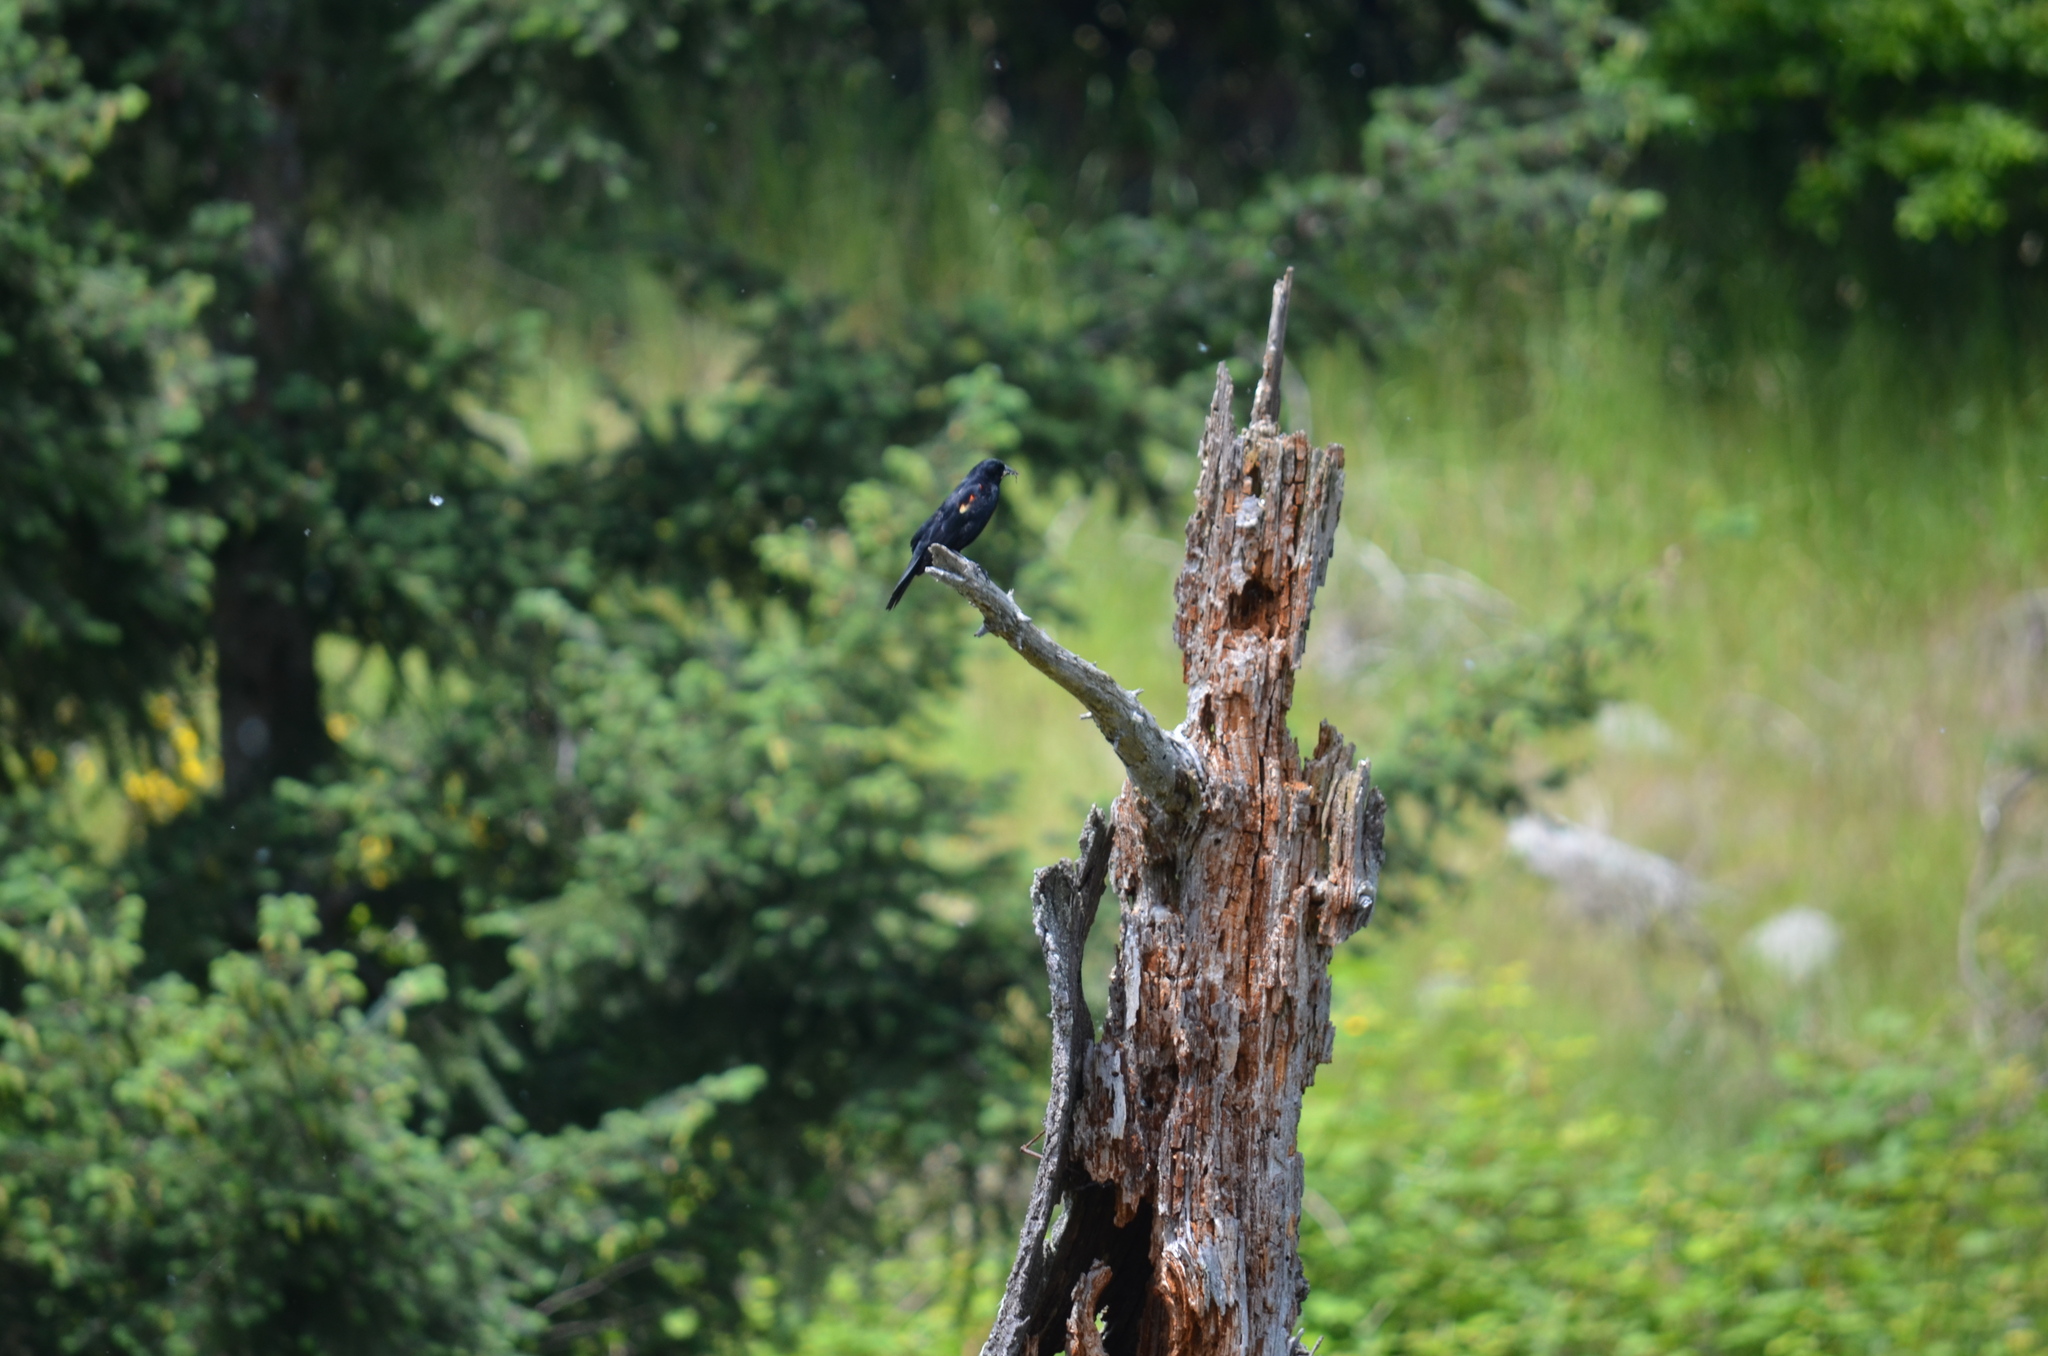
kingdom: Animalia
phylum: Chordata
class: Aves
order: Passeriformes
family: Icteridae
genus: Agelaius
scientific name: Agelaius phoeniceus
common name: Red-winged blackbird
